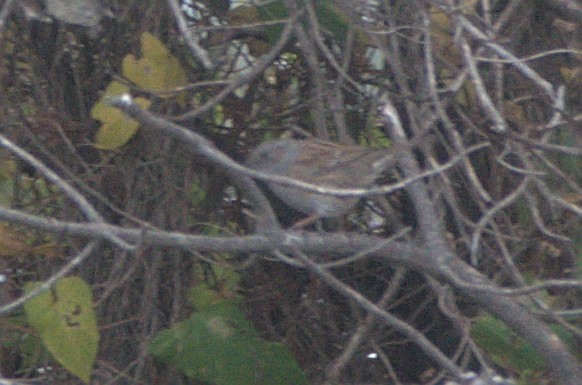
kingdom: Animalia
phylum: Chordata
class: Aves
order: Passeriformes
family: Prunellidae
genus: Prunella
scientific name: Prunella modularis
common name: Dunnock
